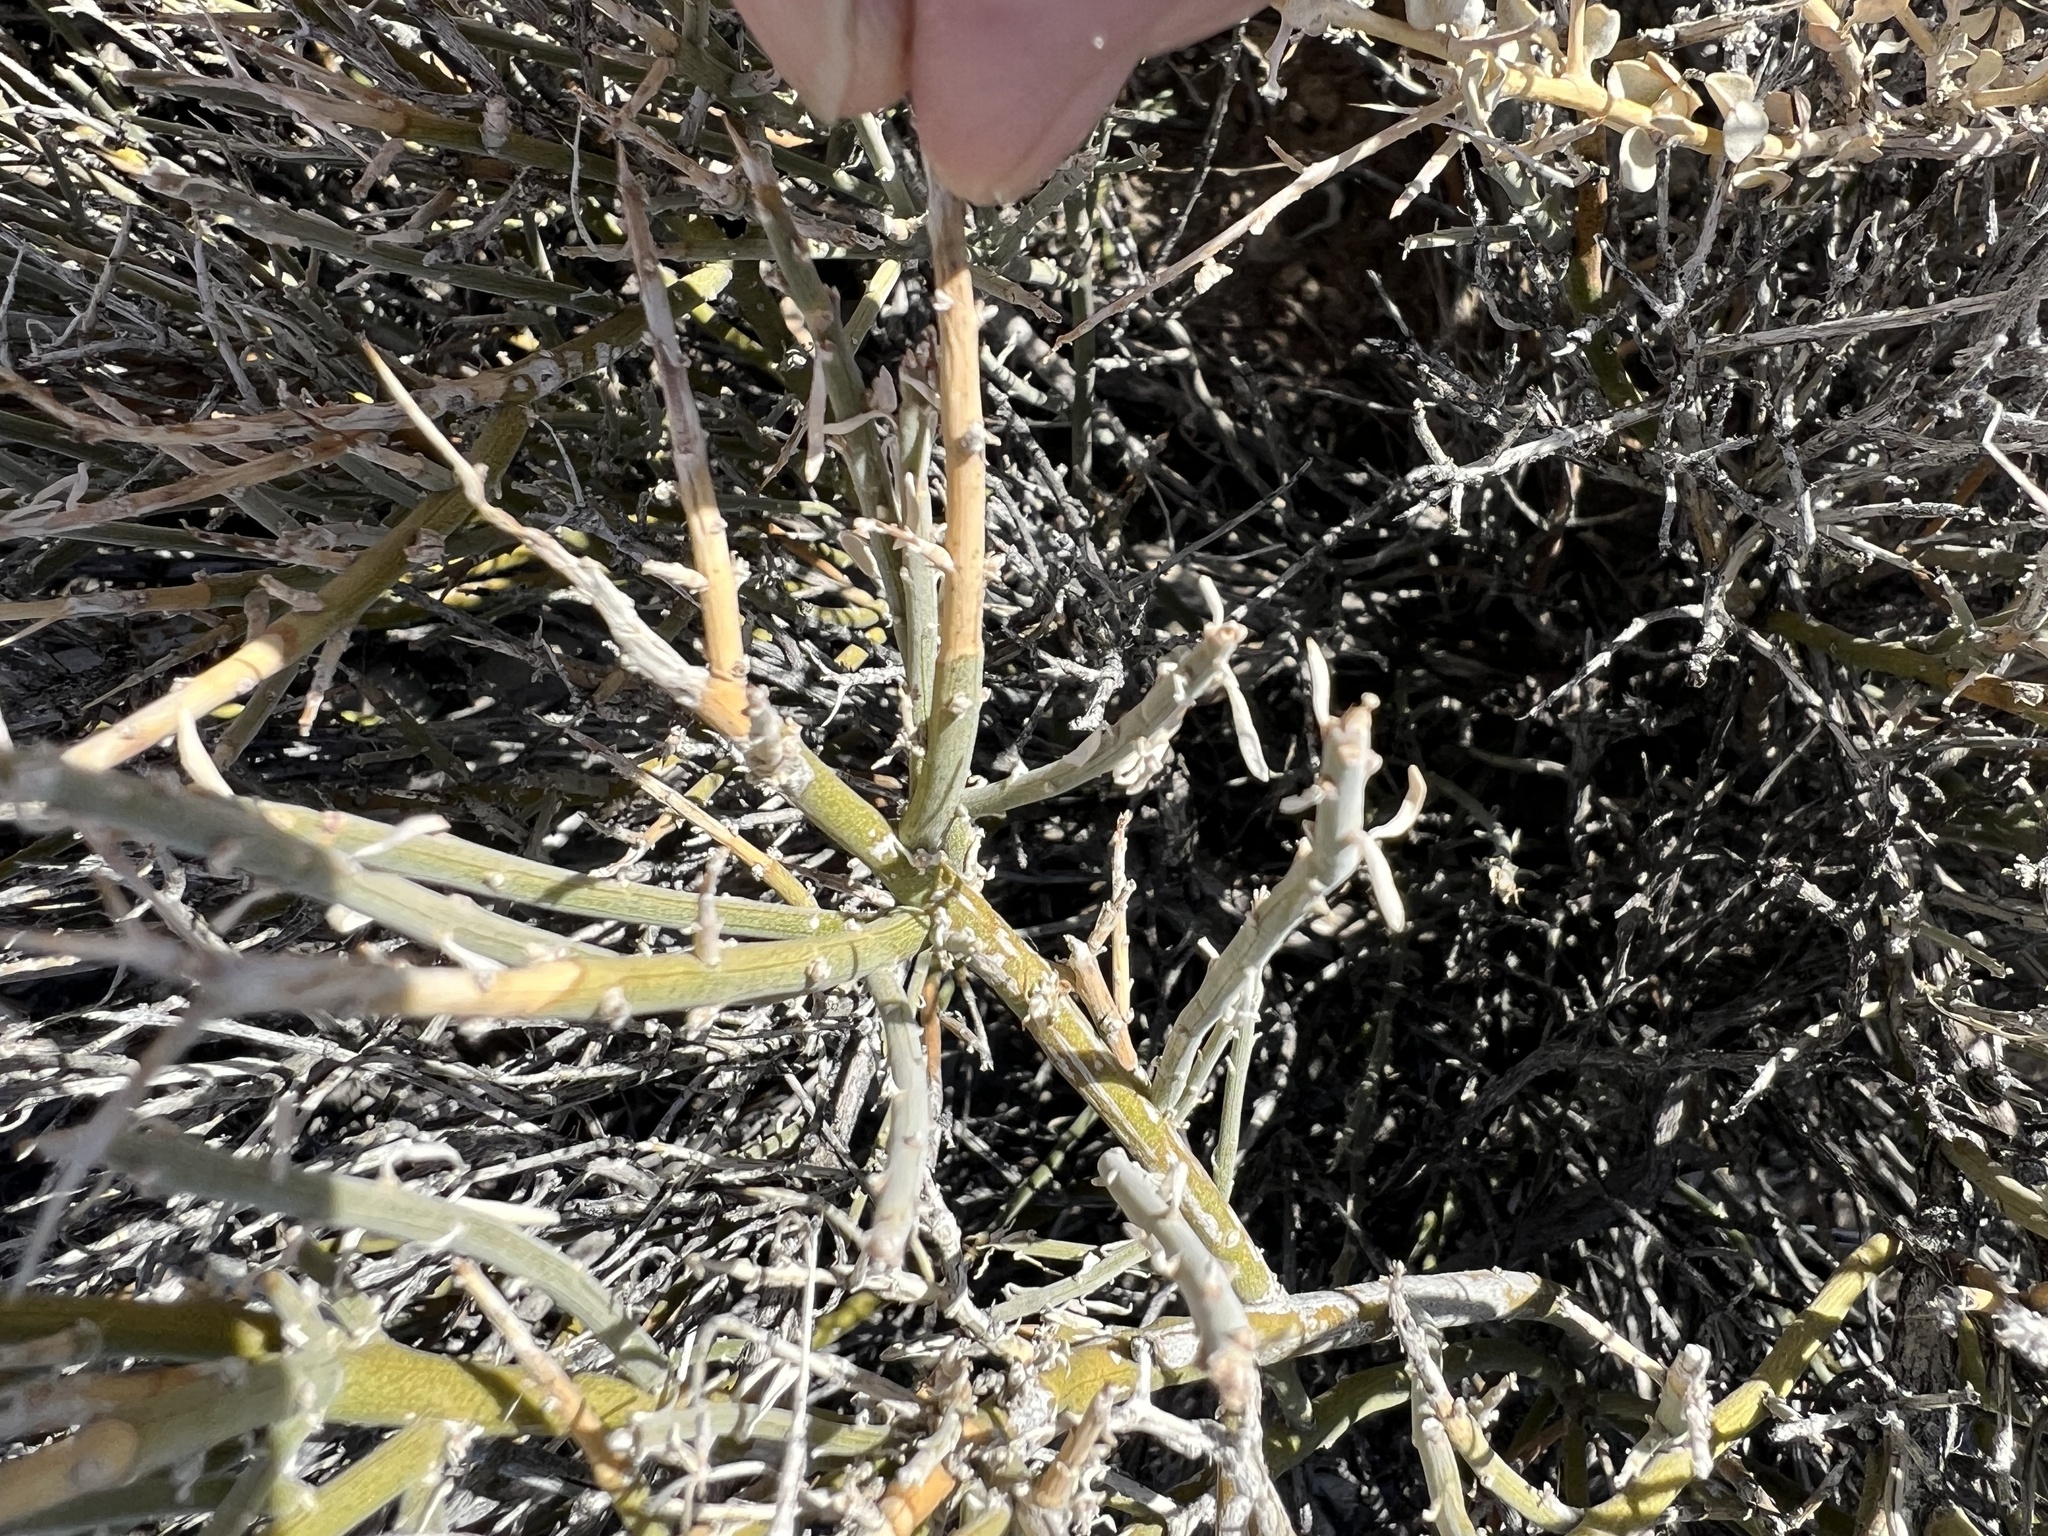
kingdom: Plantae
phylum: Tracheophyta
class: Magnoliopsida
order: Lamiales
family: Oleaceae
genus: Menodora
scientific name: Menodora spinescens
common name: Spiny menodora
